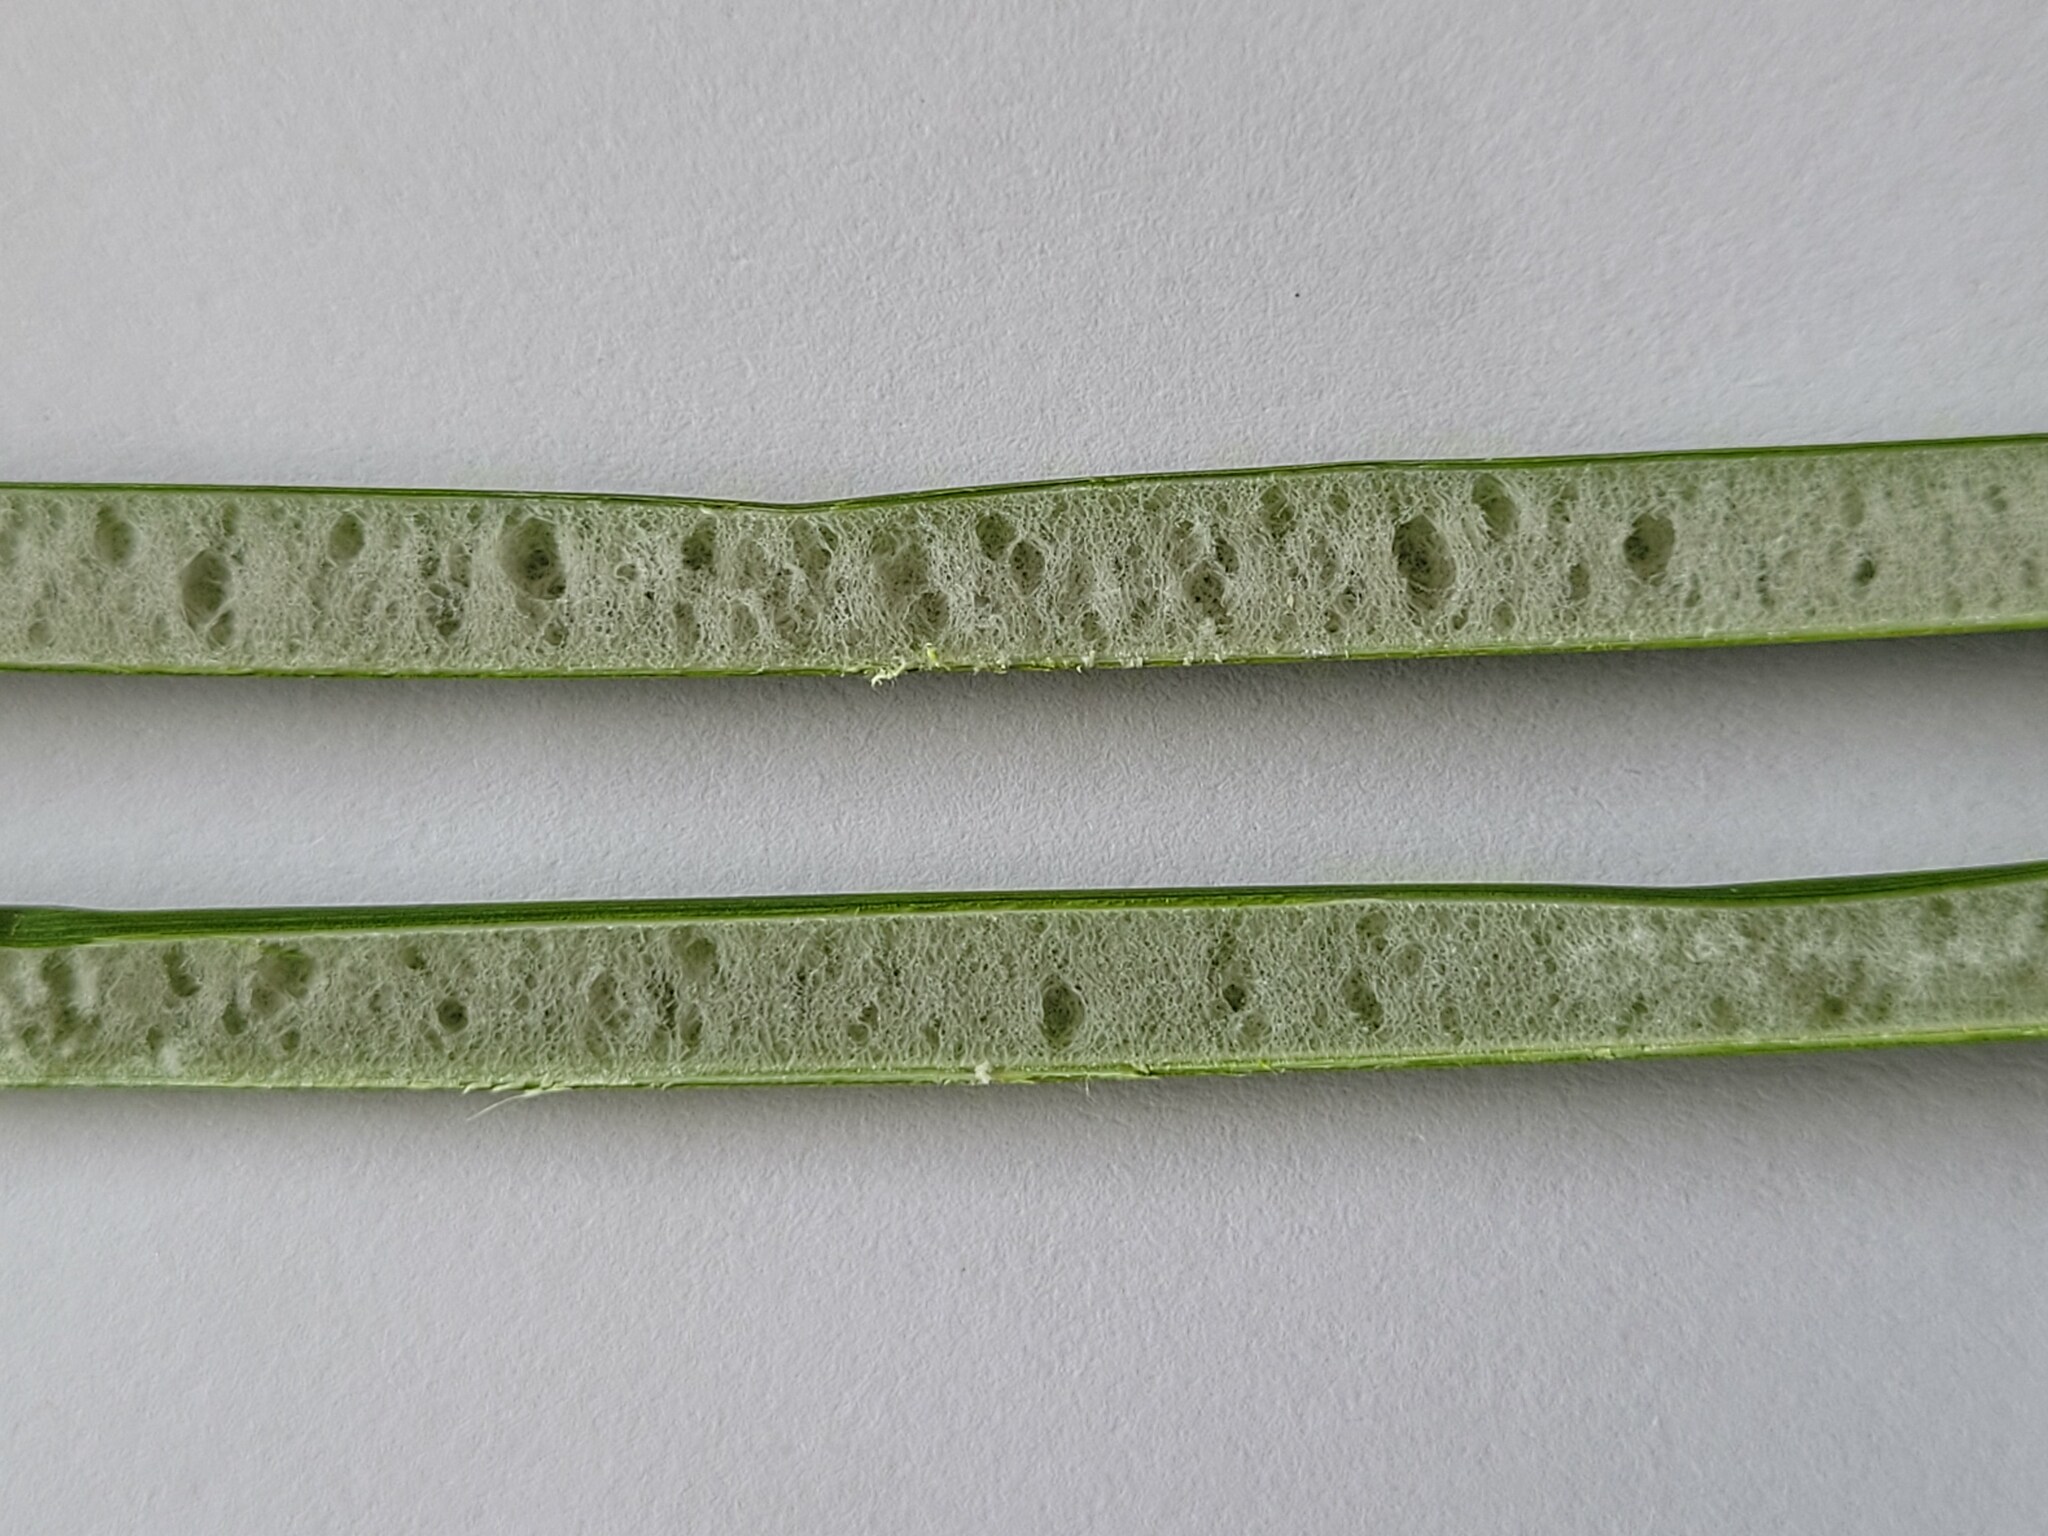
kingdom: Plantae
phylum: Tracheophyta
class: Liliopsida
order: Poales
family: Juncaceae
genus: Juncus
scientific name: Juncus pallidus
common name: Great soft-rush
